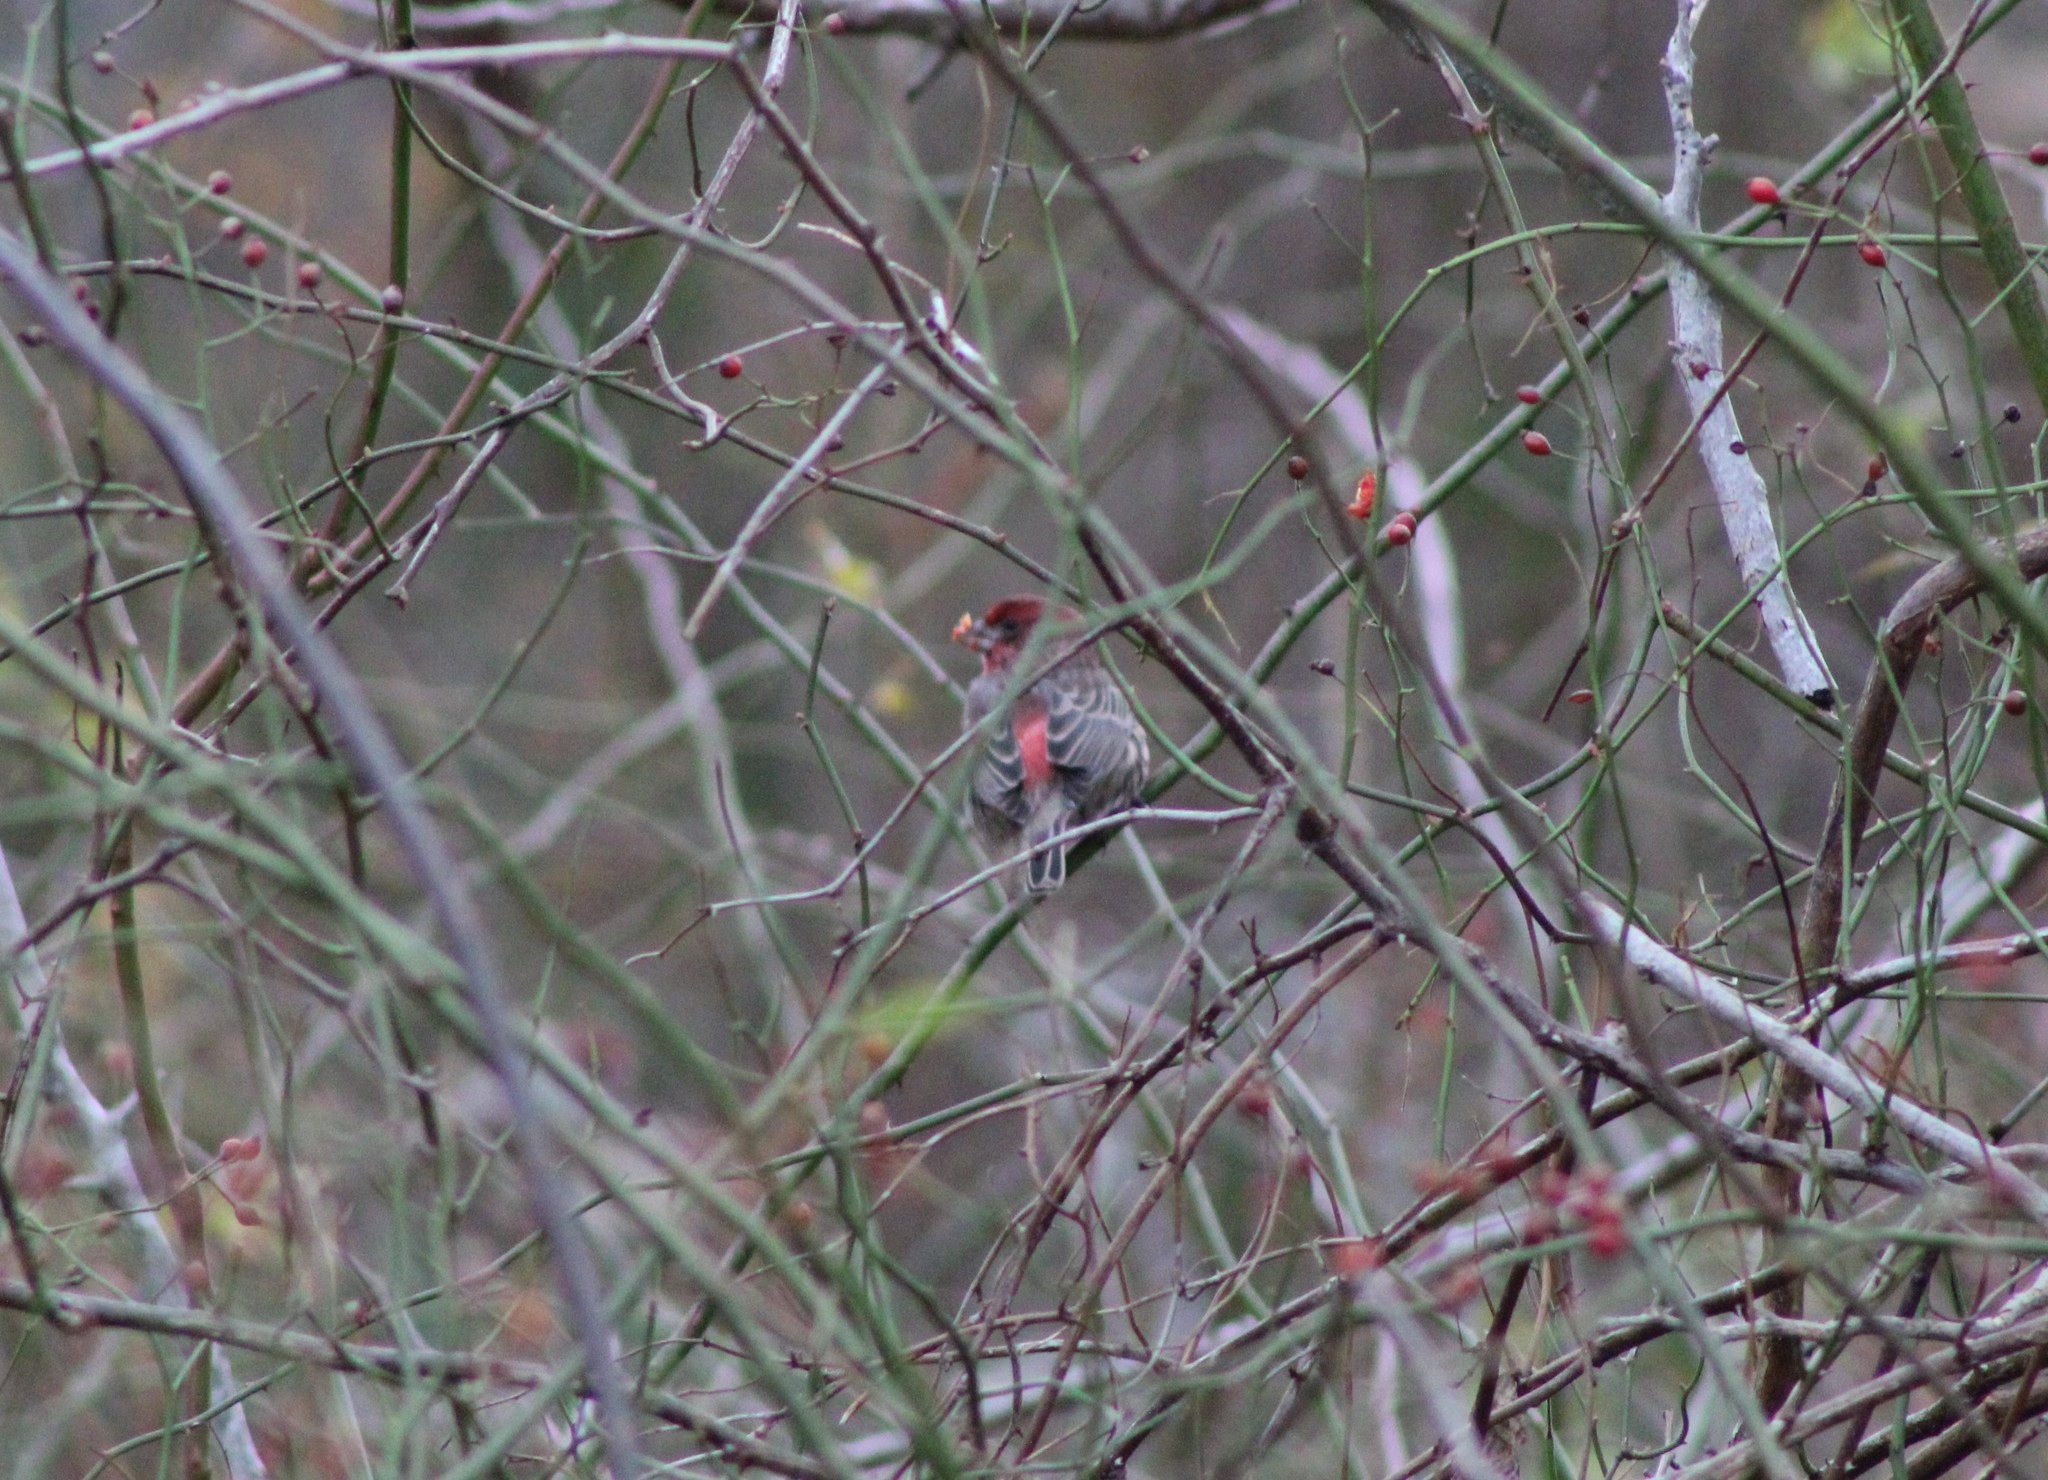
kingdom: Animalia
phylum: Chordata
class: Aves
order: Passeriformes
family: Fringillidae
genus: Haemorhous
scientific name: Haemorhous mexicanus
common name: House finch
